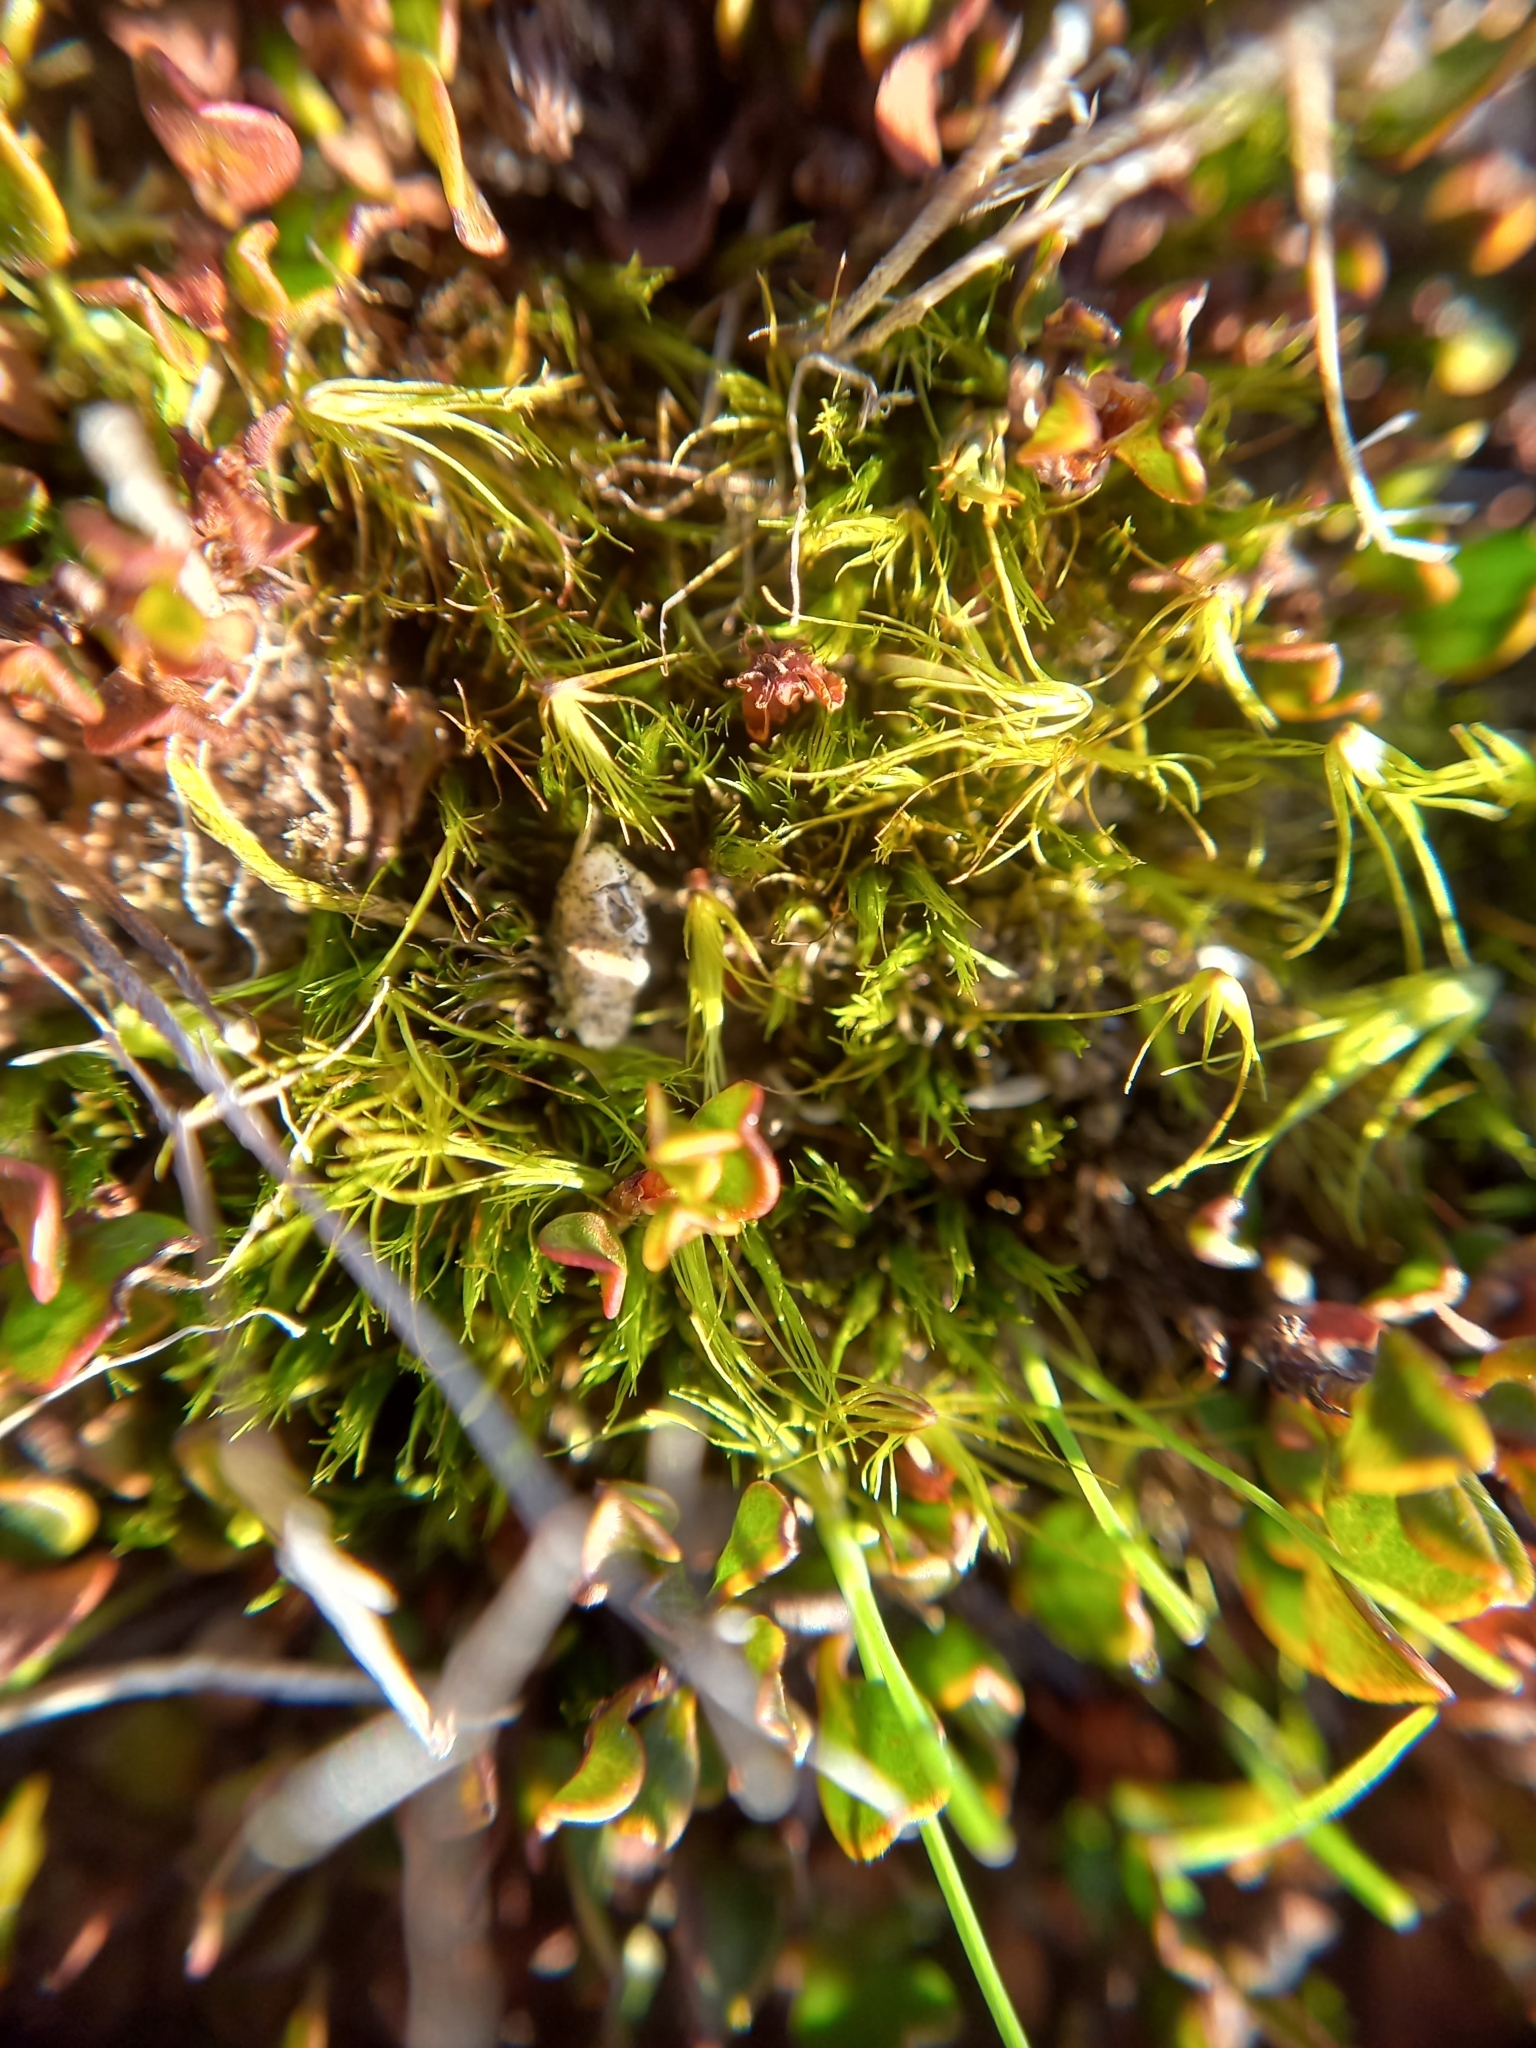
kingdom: Plantae
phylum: Bryophyta
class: Bryopsida
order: Dicranales
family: Leucobryaceae
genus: Campylopus
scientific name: Campylopus clavatus
